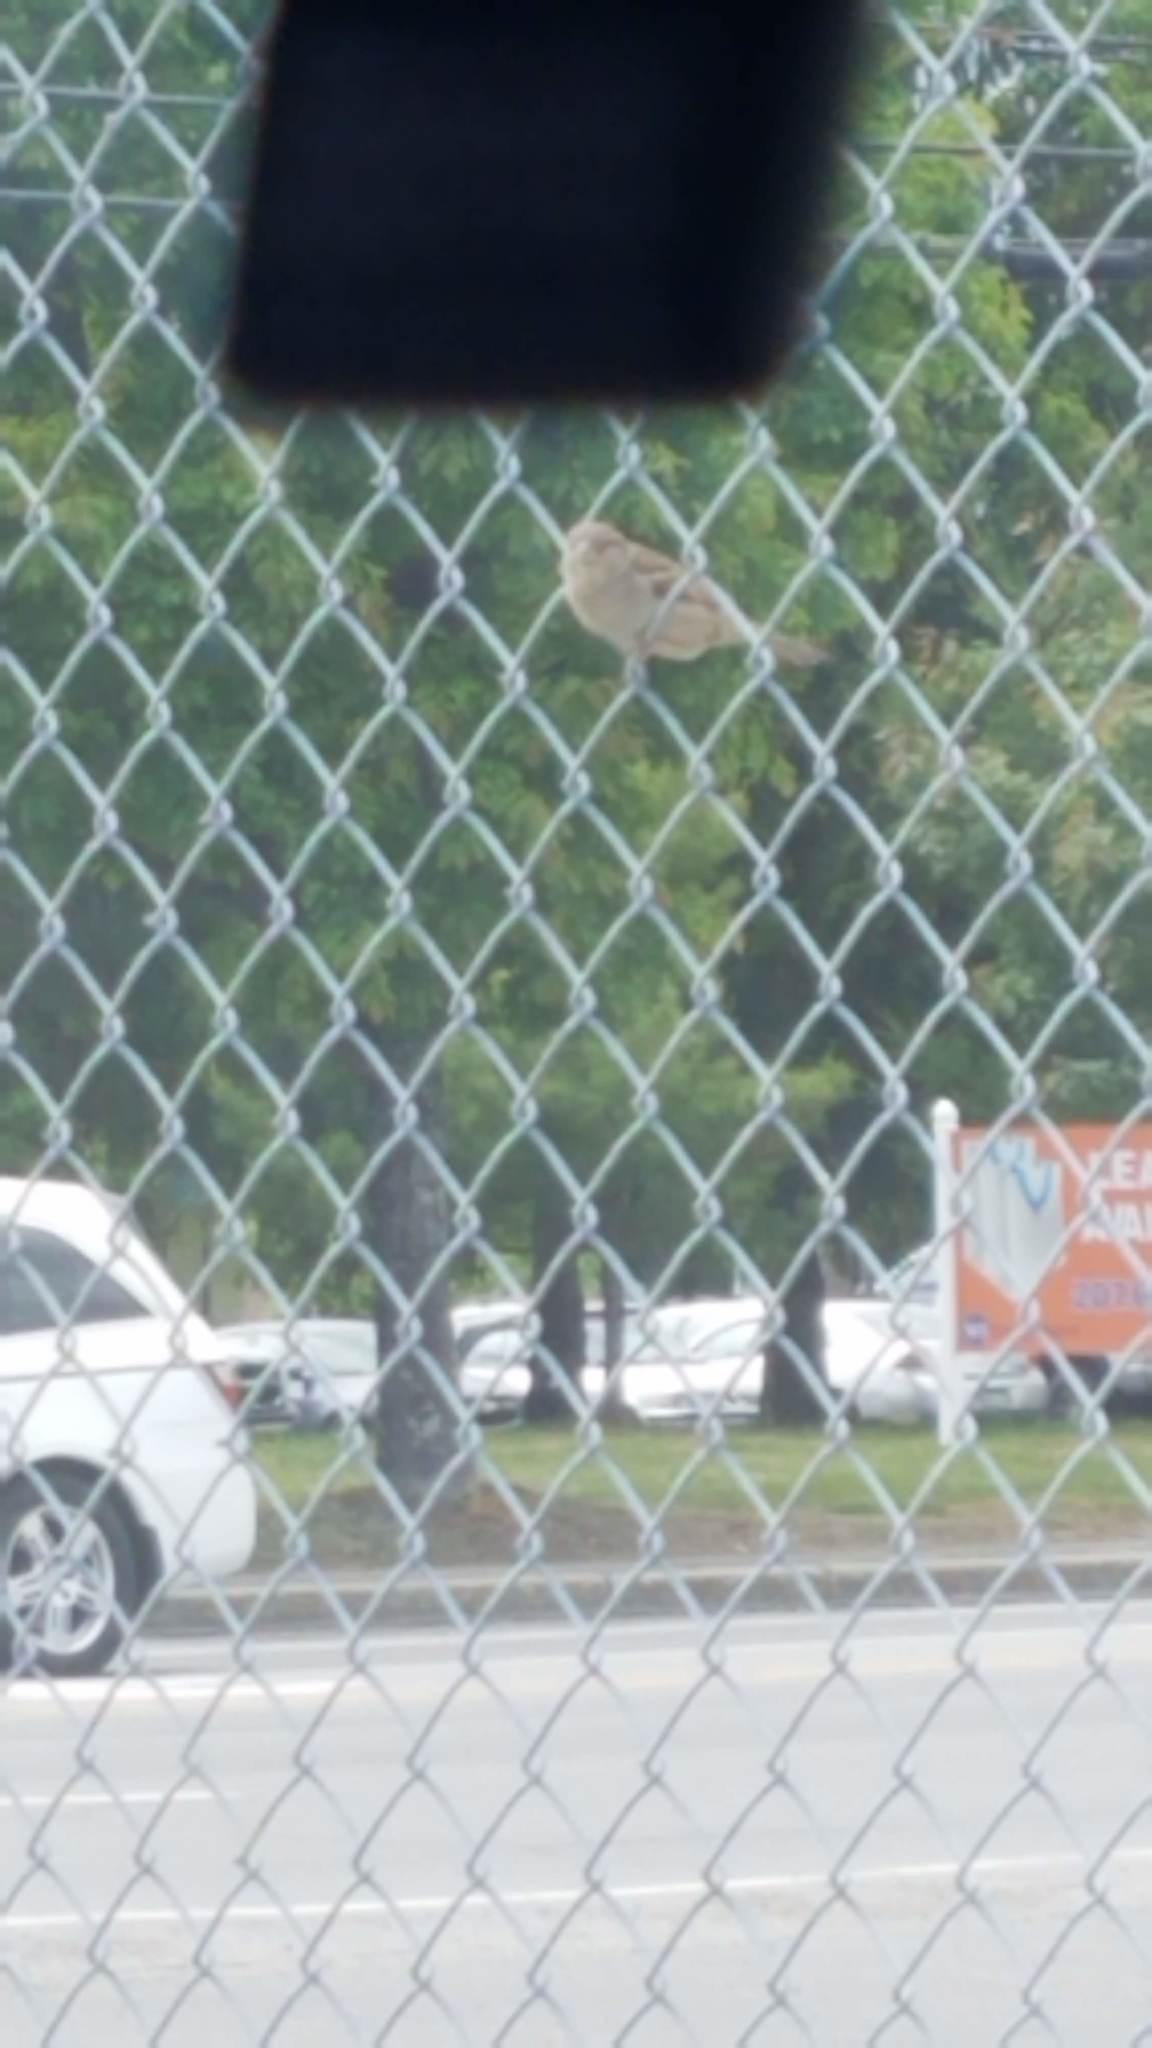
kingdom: Animalia
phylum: Chordata
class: Aves
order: Passeriformes
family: Passeridae
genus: Passer
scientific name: Passer domesticus
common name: House sparrow
